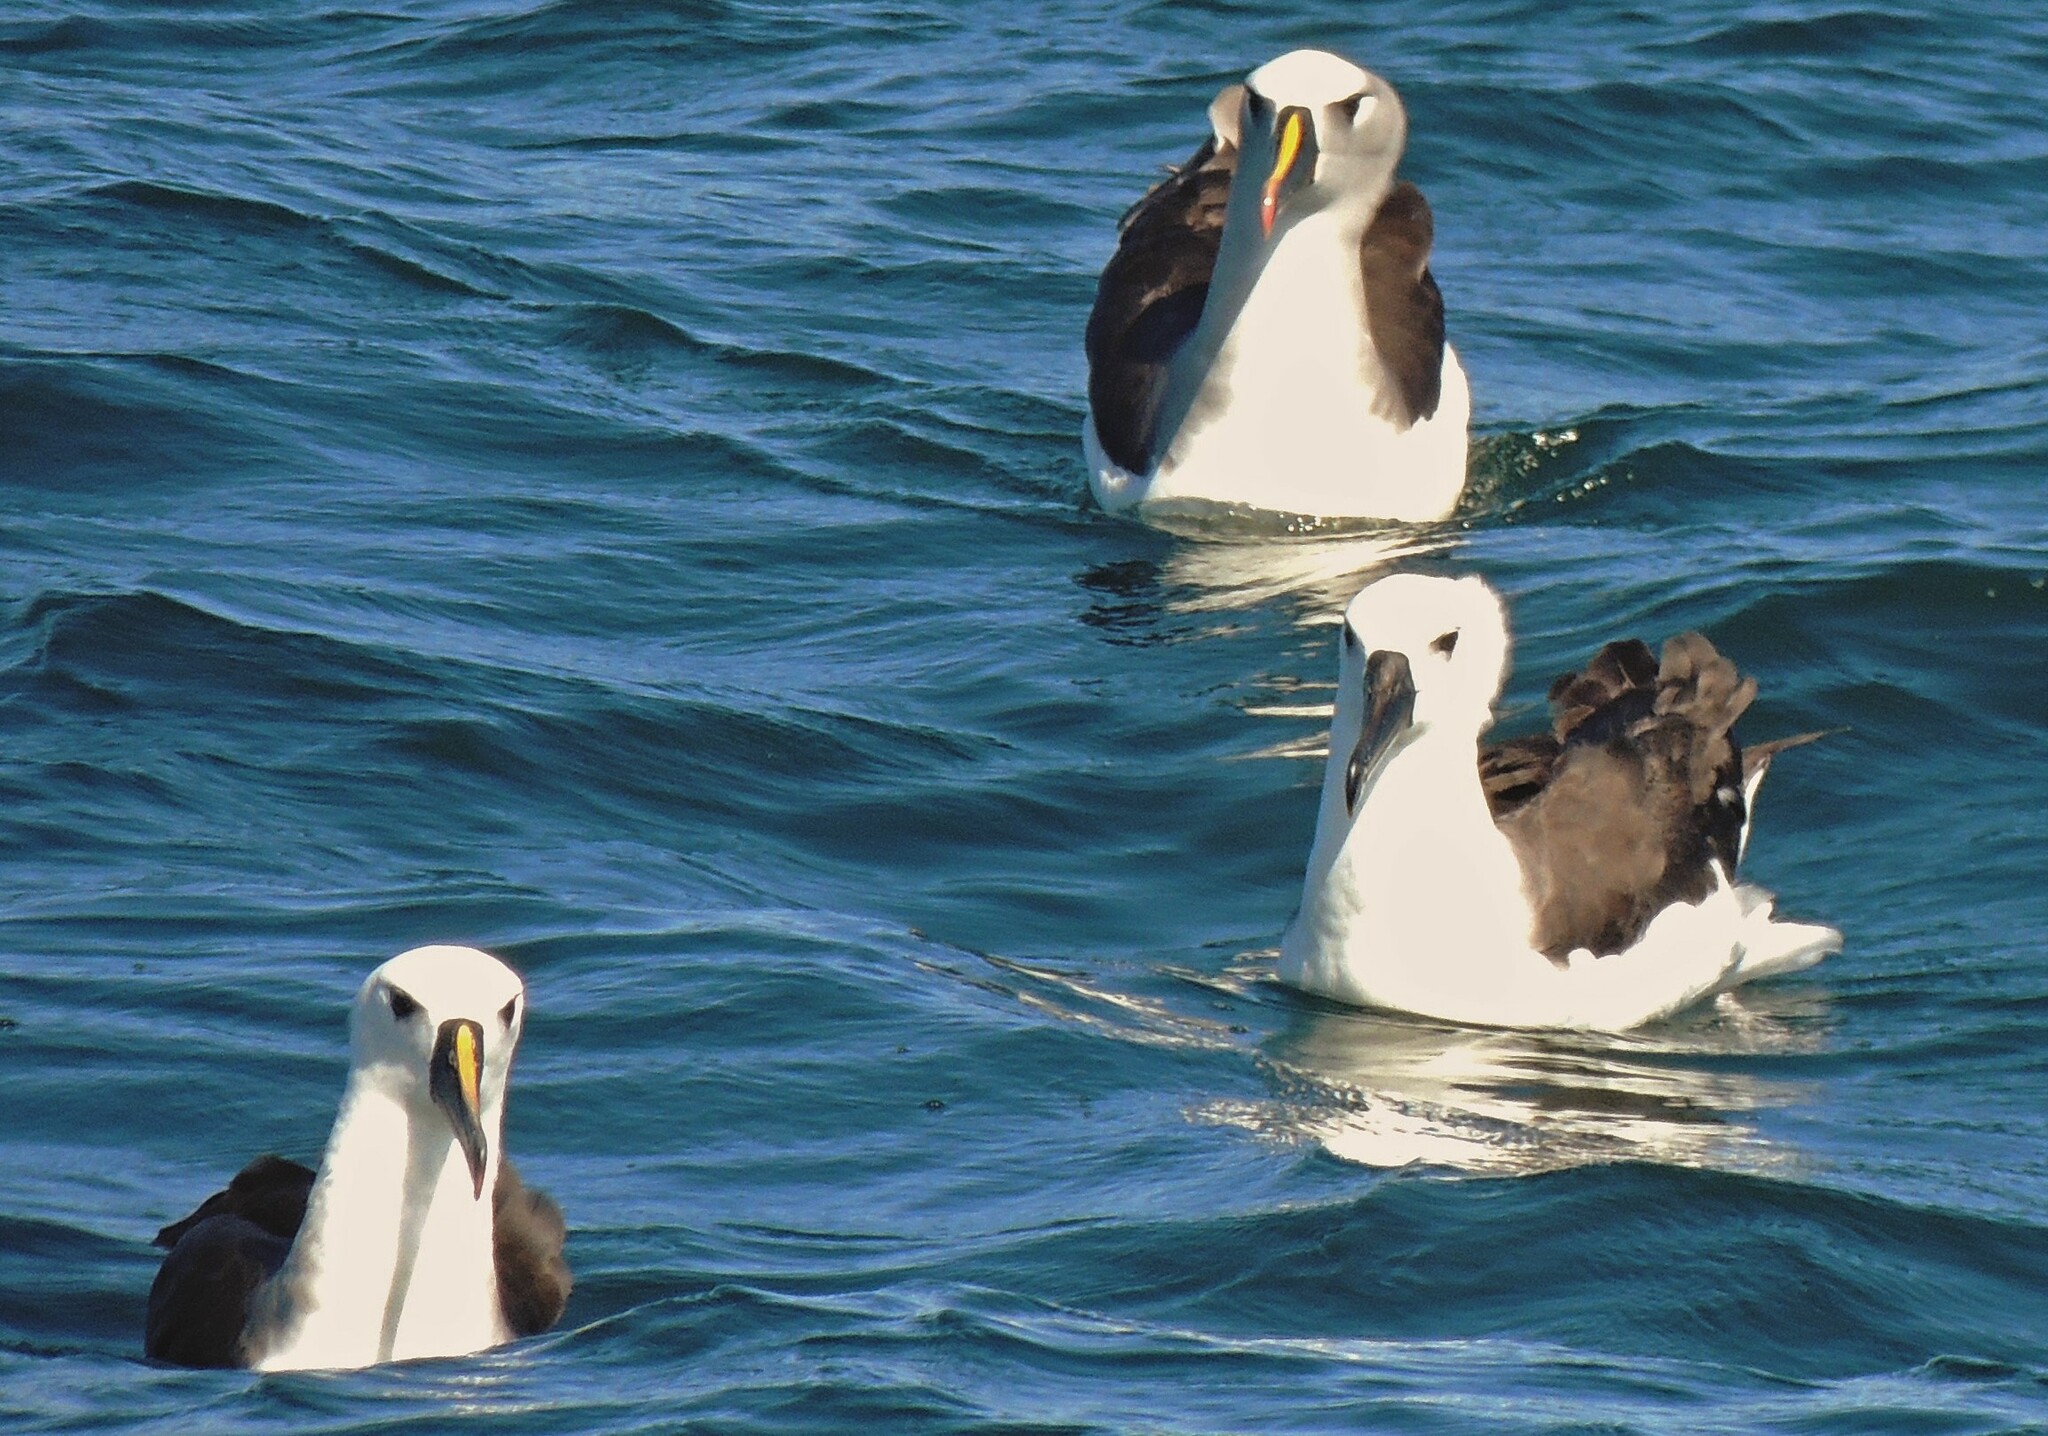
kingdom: Animalia
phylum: Chordata
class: Aves
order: Procellariiformes
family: Diomedeidae
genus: Thalassarche
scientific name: Thalassarche chlororhynchos
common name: Atlantic yellow-nosed albatross
